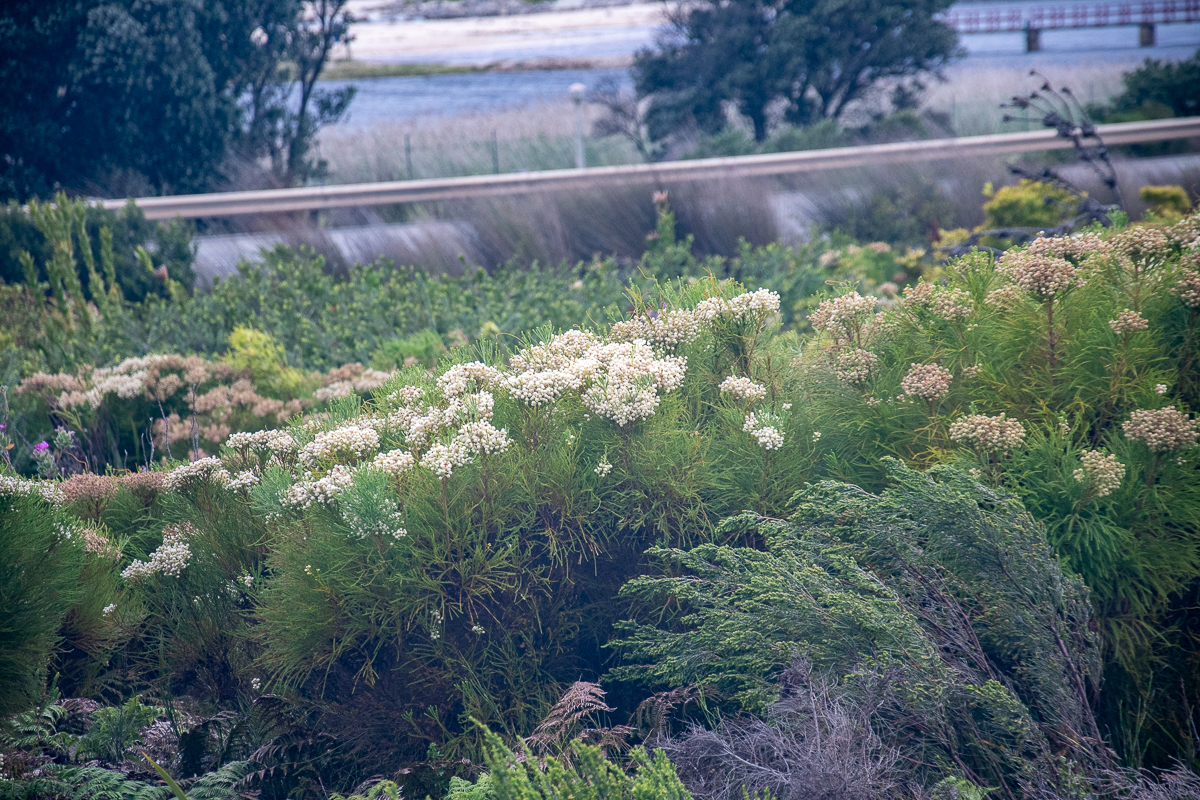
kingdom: Plantae
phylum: Tracheophyta
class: Magnoliopsida
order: Bruniales
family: Bruniaceae
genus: Berzelia
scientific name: Berzelia lanuginosa
